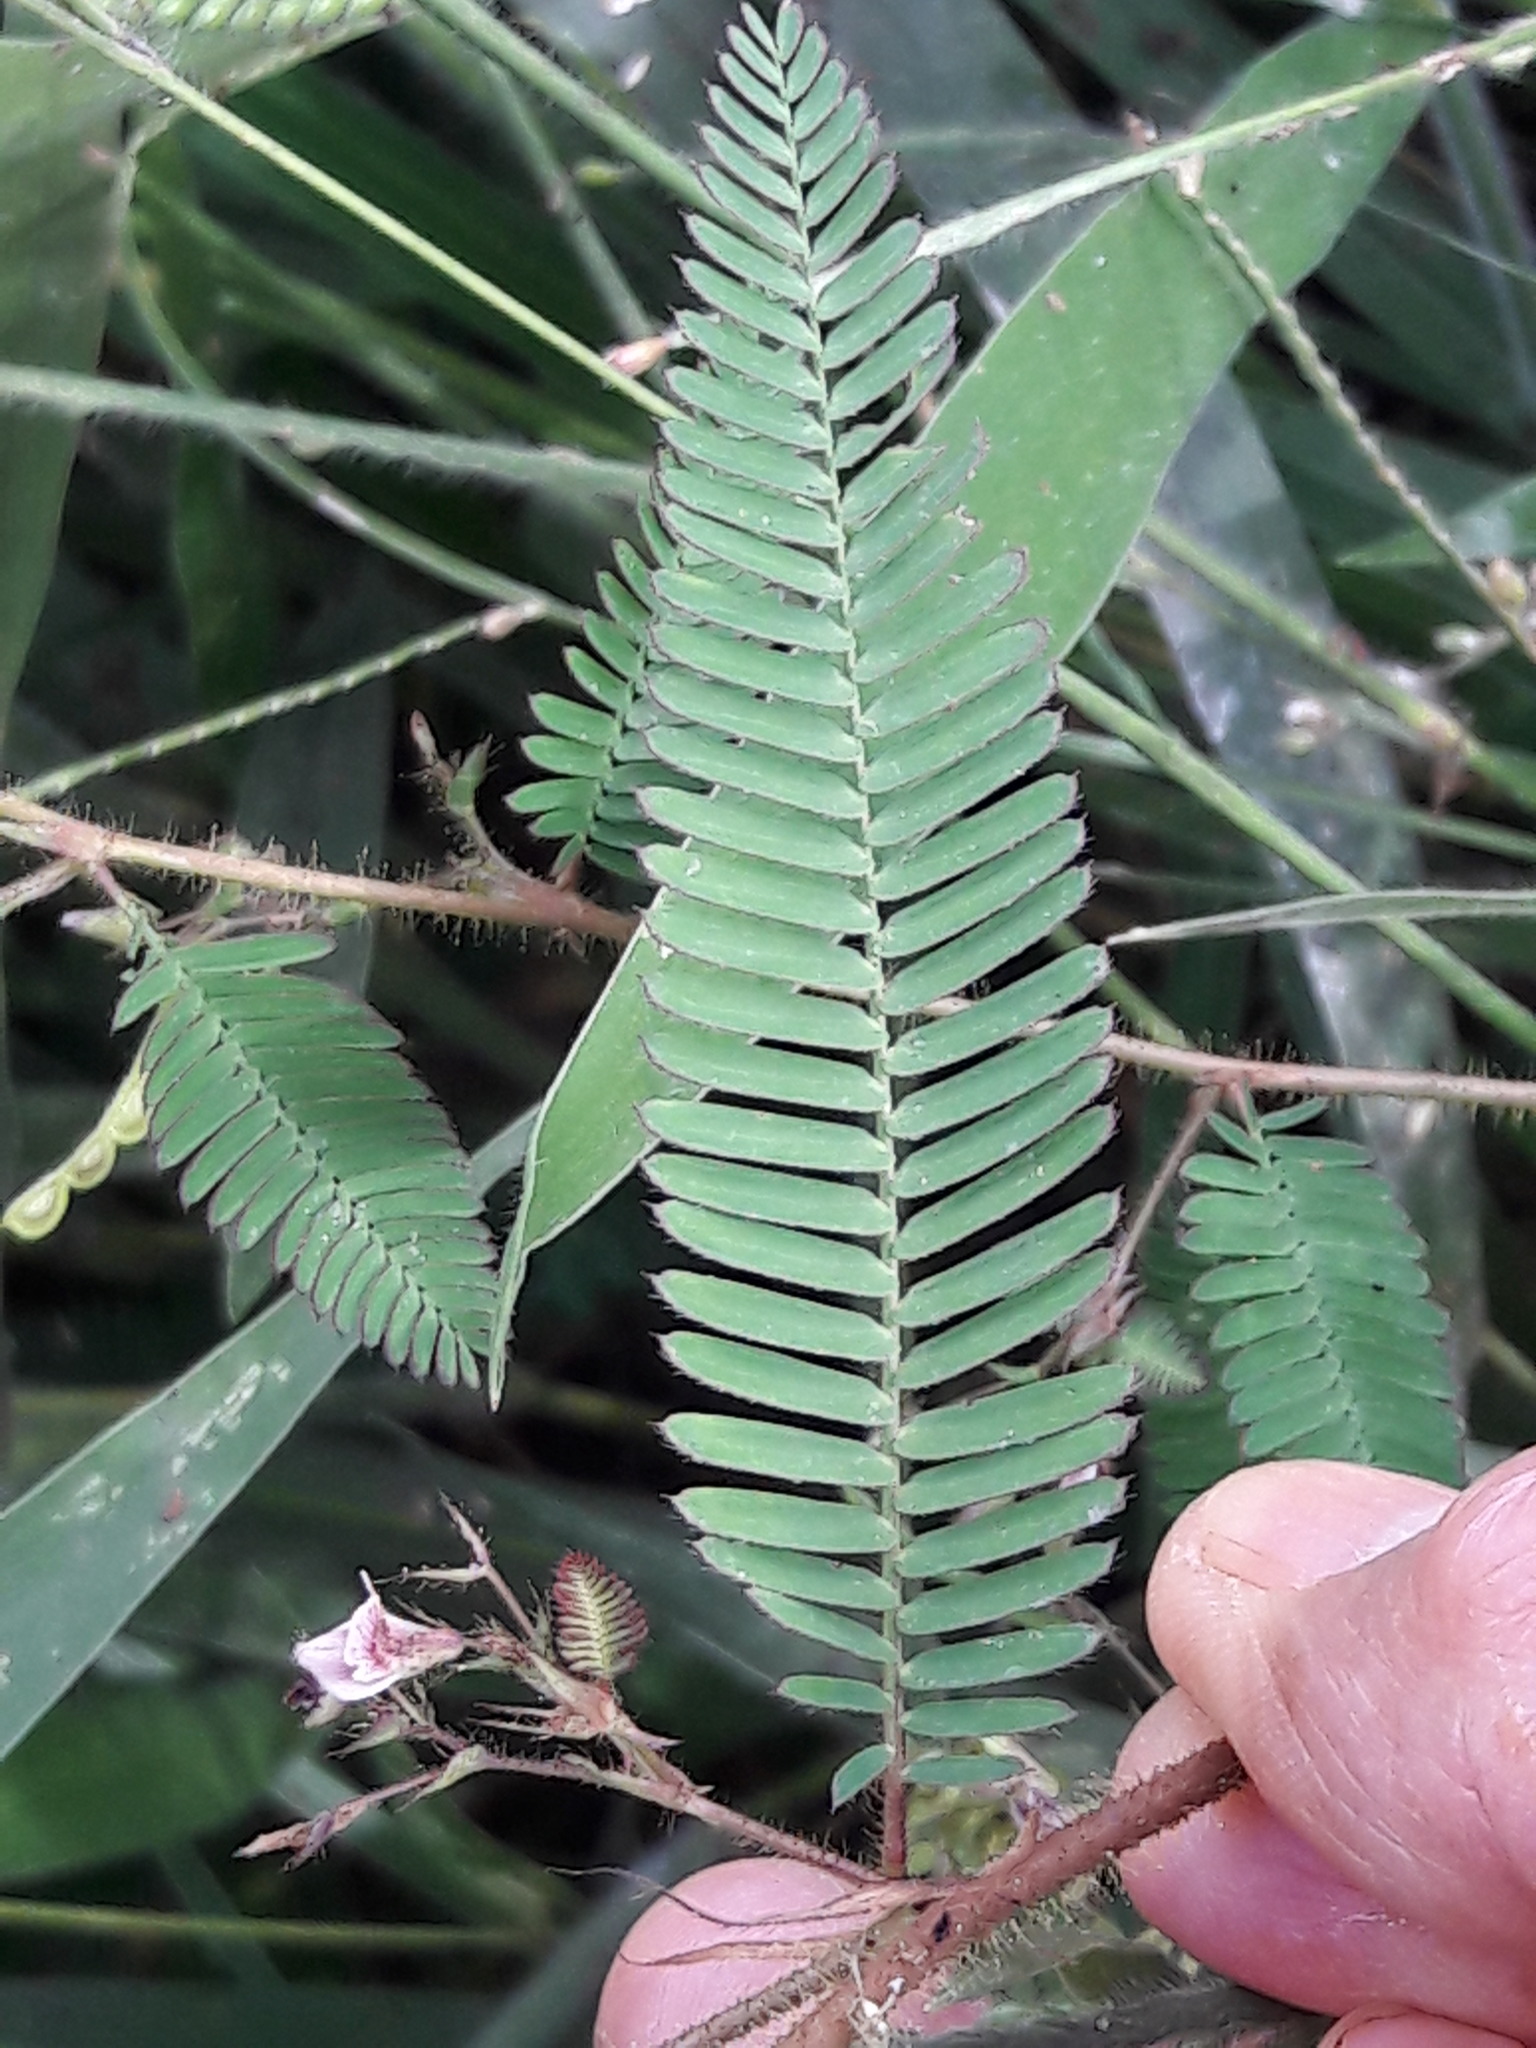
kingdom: Plantae
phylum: Tracheophyta
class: Magnoliopsida
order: Fabales
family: Fabaceae
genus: Aeschynomene
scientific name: Aeschynomene americana
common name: Joint-vetch
